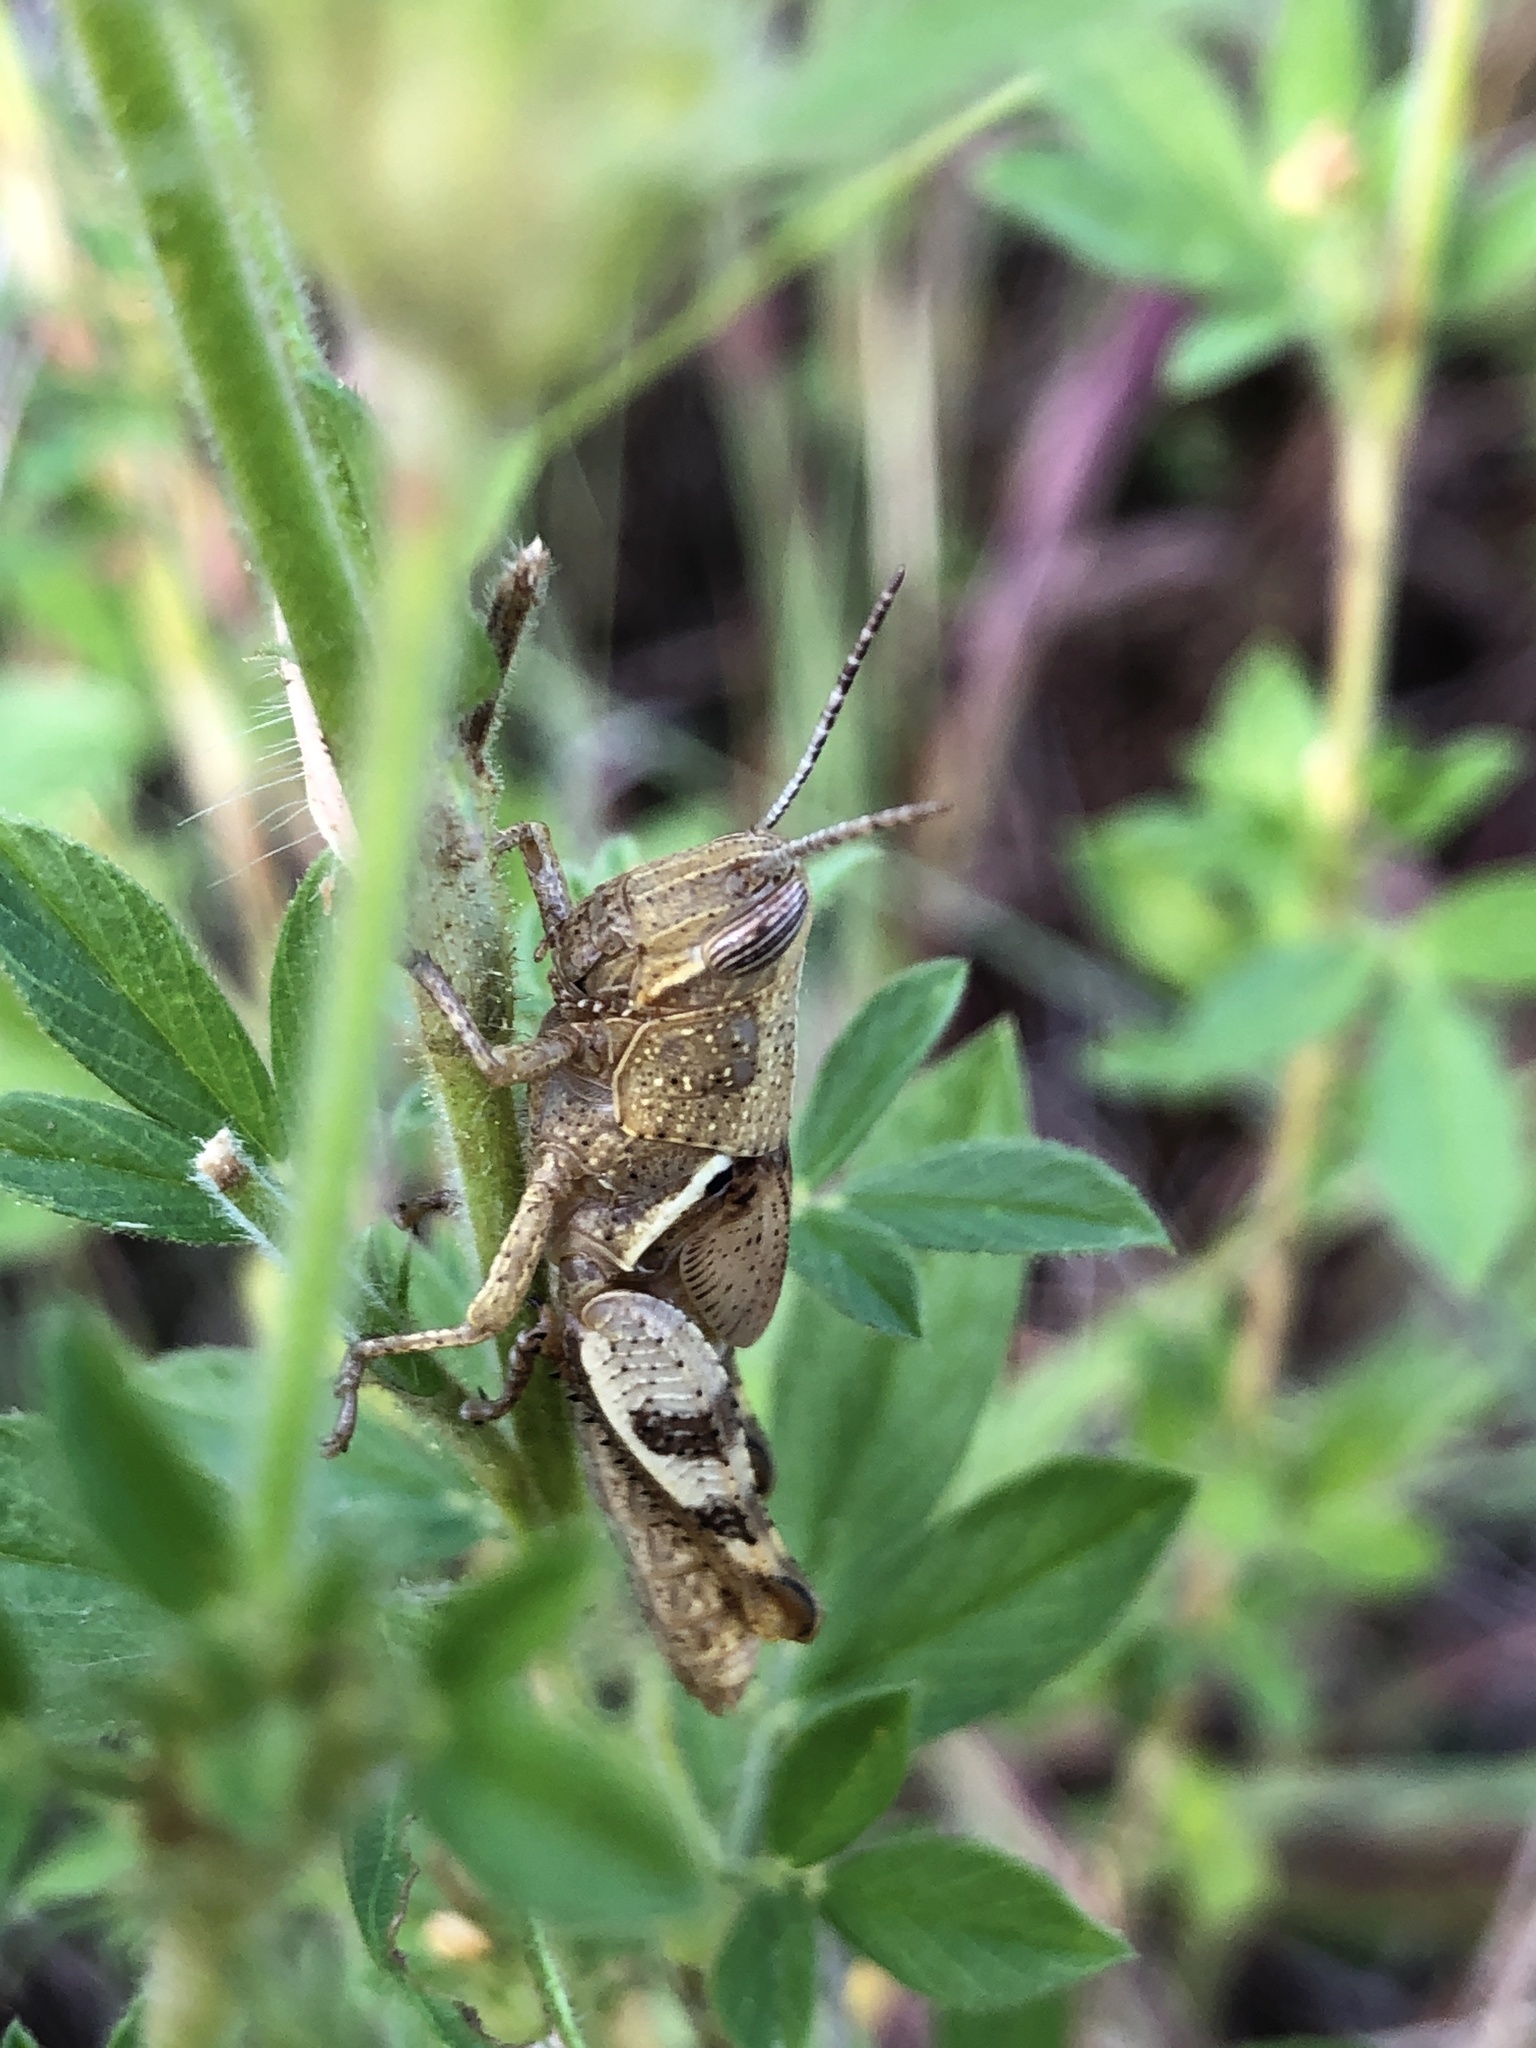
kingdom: Animalia
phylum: Arthropoda
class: Insecta
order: Orthoptera
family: Acrididae
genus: Stenocatantops
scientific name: Stenocatantops angustifrons
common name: Common tropical sharptail
